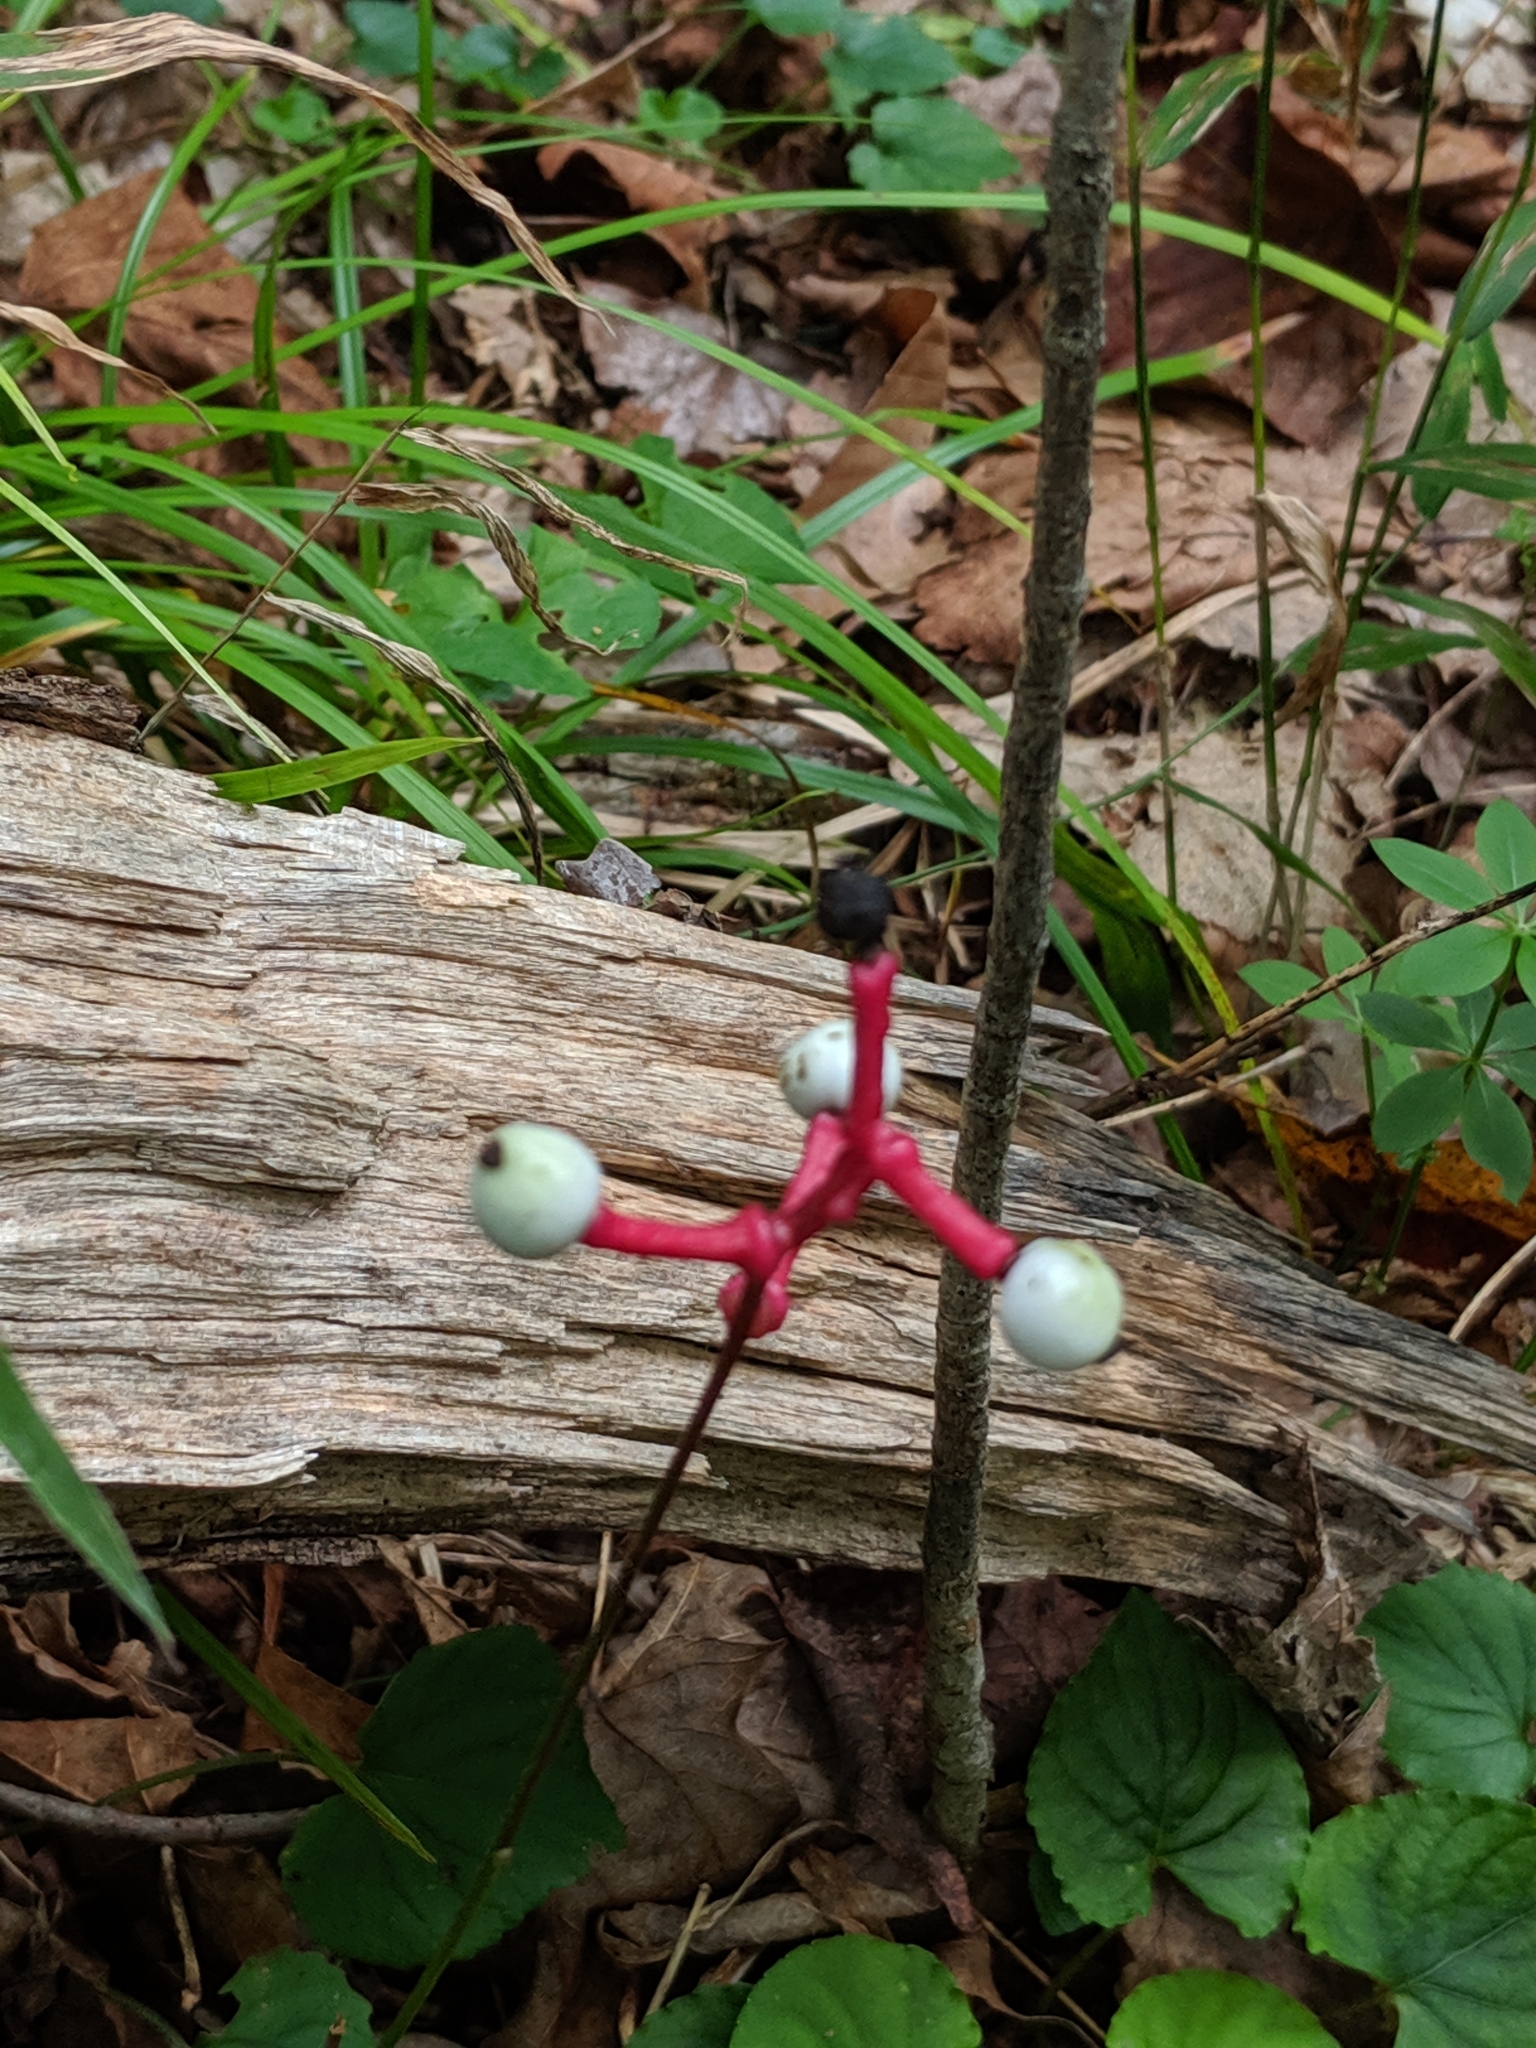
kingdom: Plantae
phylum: Tracheophyta
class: Magnoliopsida
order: Ranunculales
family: Ranunculaceae
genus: Actaea
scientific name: Actaea pachypoda
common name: Doll's-eyes
